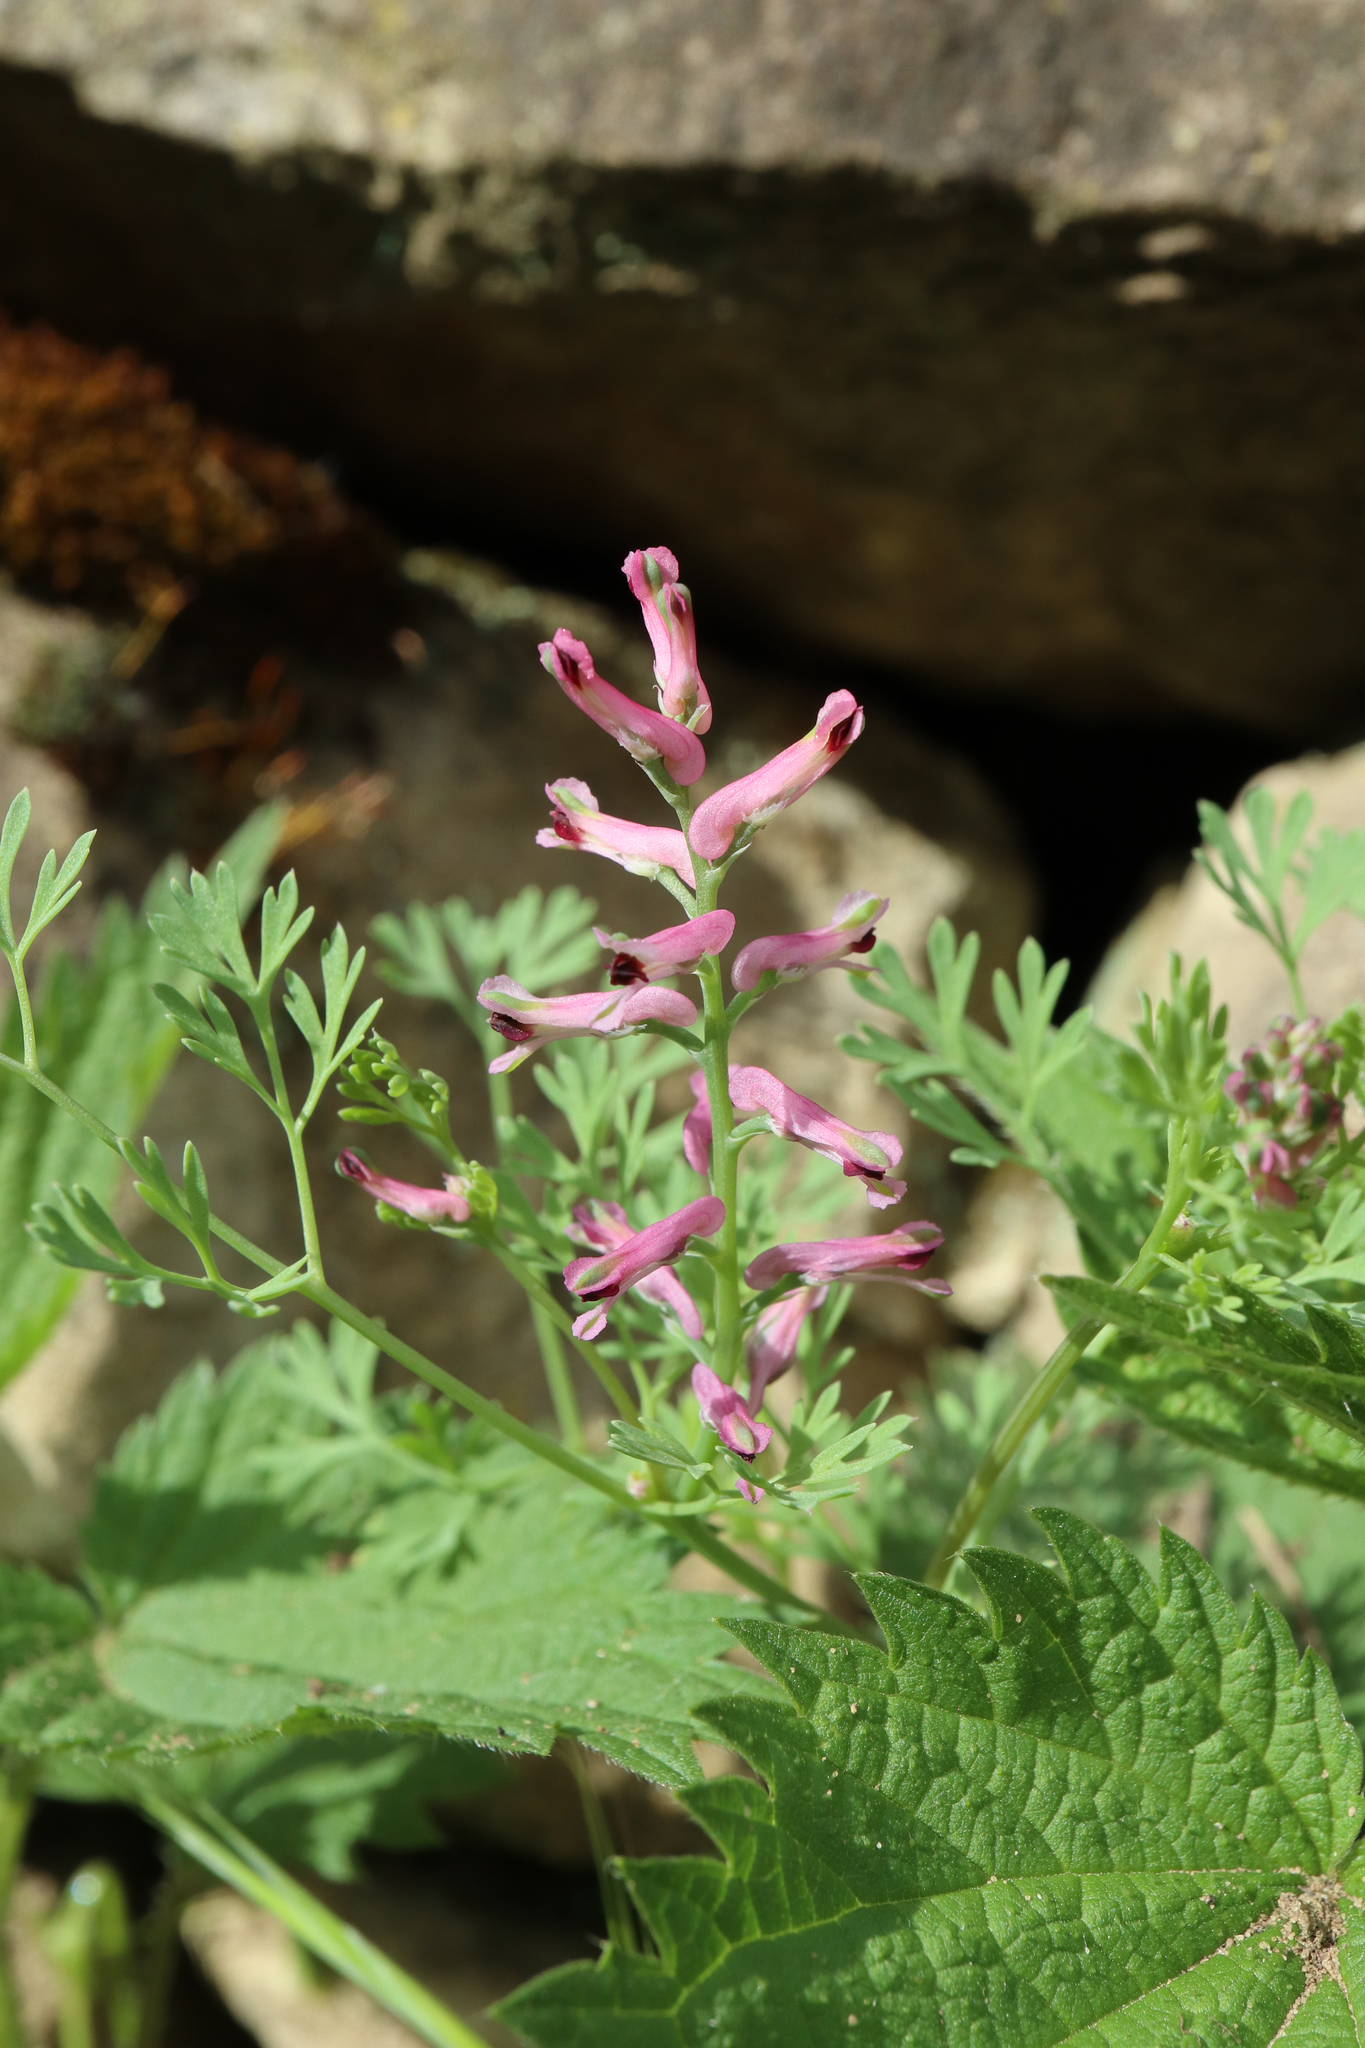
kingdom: Plantae
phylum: Tracheophyta
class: Magnoliopsida
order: Ranunculales
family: Papaveraceae
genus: Fumaria
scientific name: Fumaria officinalis
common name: Common fumitory
